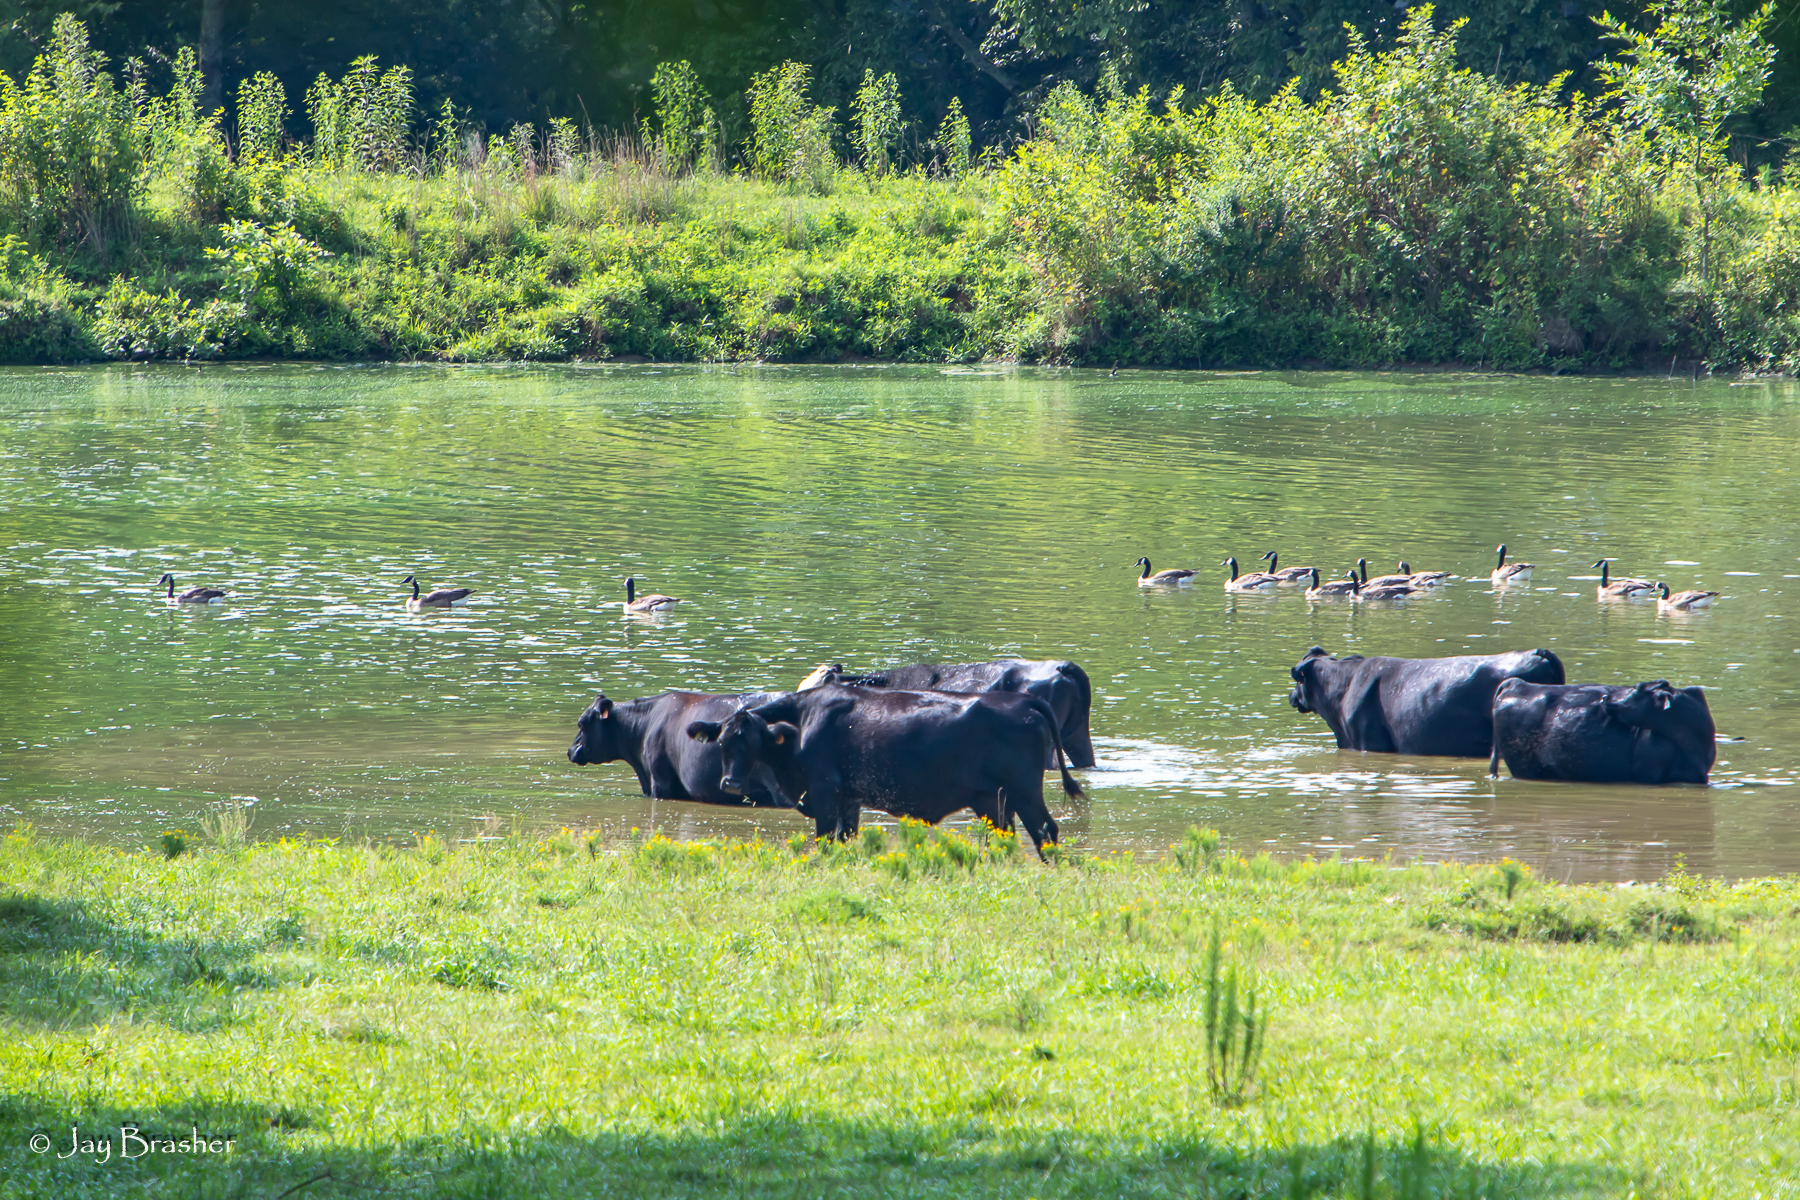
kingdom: Animalia
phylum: Chordata
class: Aves
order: Anseriformes
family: Anatidae
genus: Branta
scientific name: Branta canadensis
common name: Canada goose
